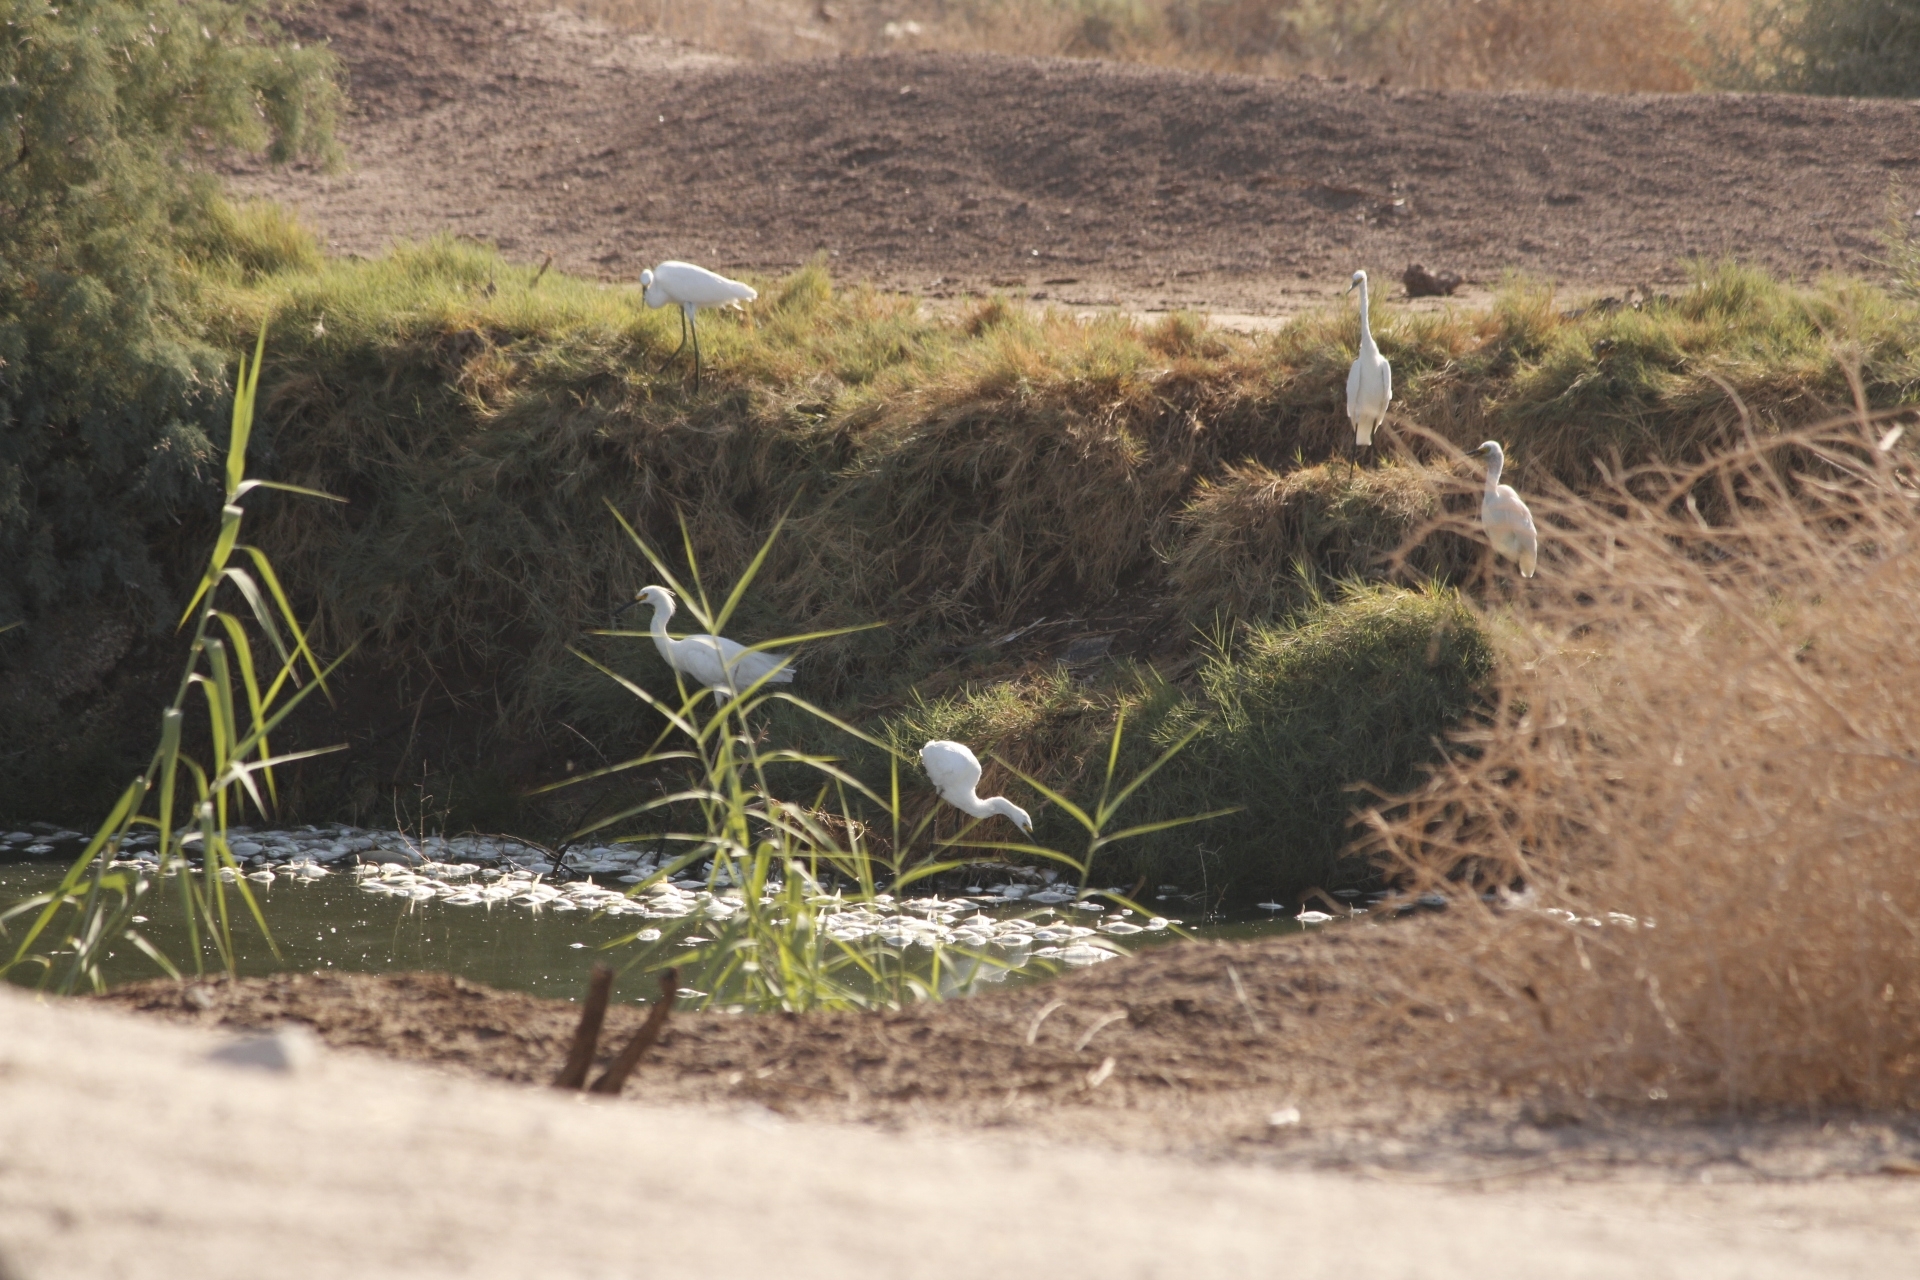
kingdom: Animalia
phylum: Chordata
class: Aves
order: Pelecaniformes
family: Ardeidae
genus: Egretta
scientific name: Egretta thula
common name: Snowy egret
